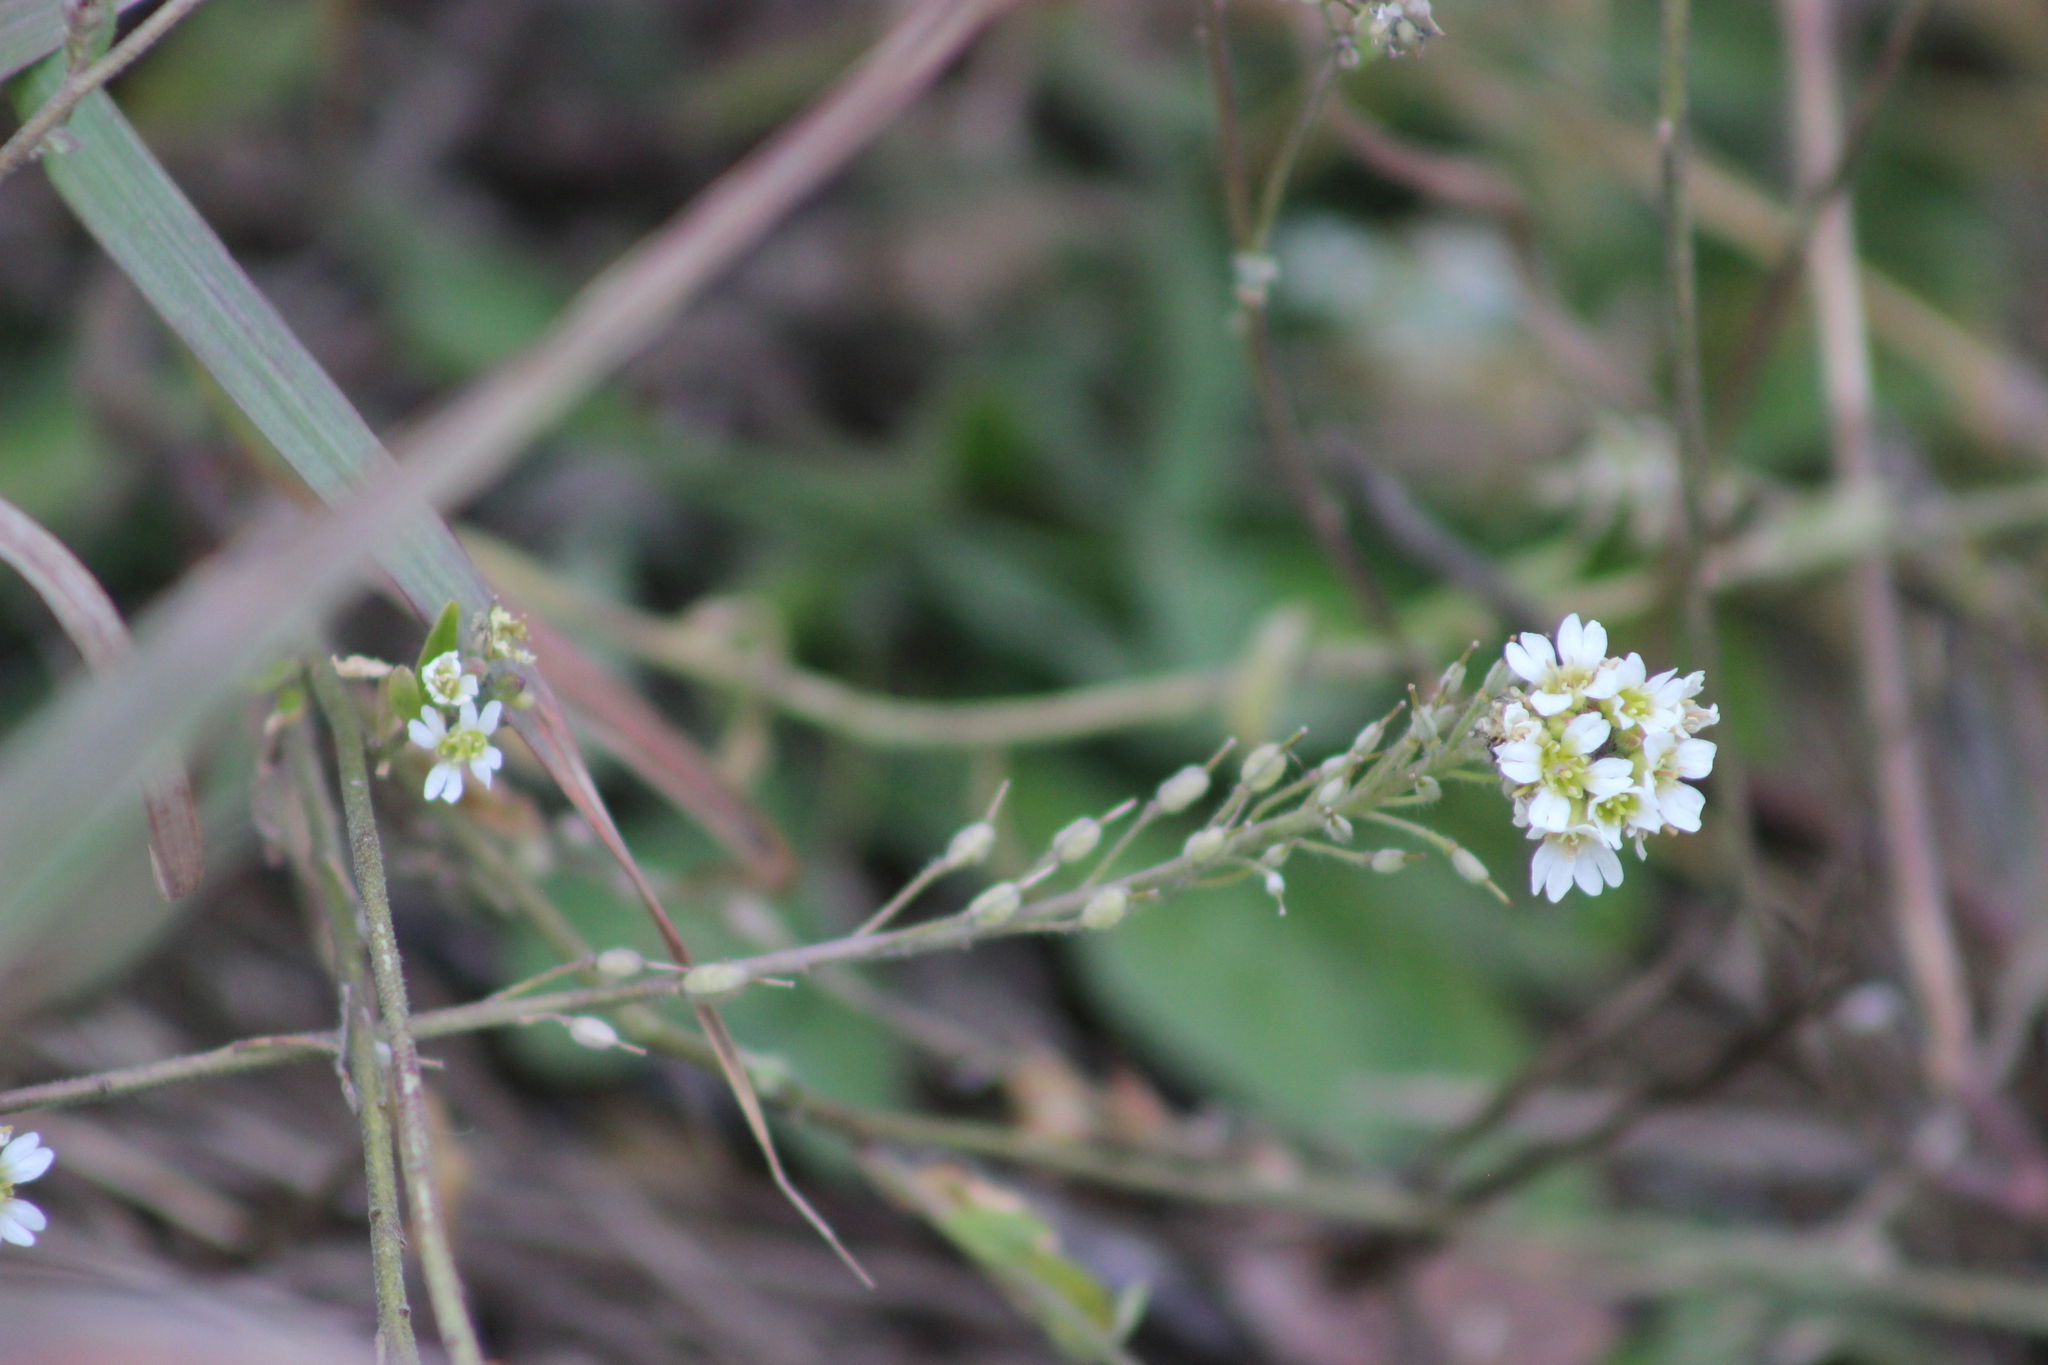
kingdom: Plantae
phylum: Tracheophyta
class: Magnoliopsida
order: Brassicales
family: Brassicaceae
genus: Berteroa
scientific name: Berteroa incana
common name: Hoary alison
